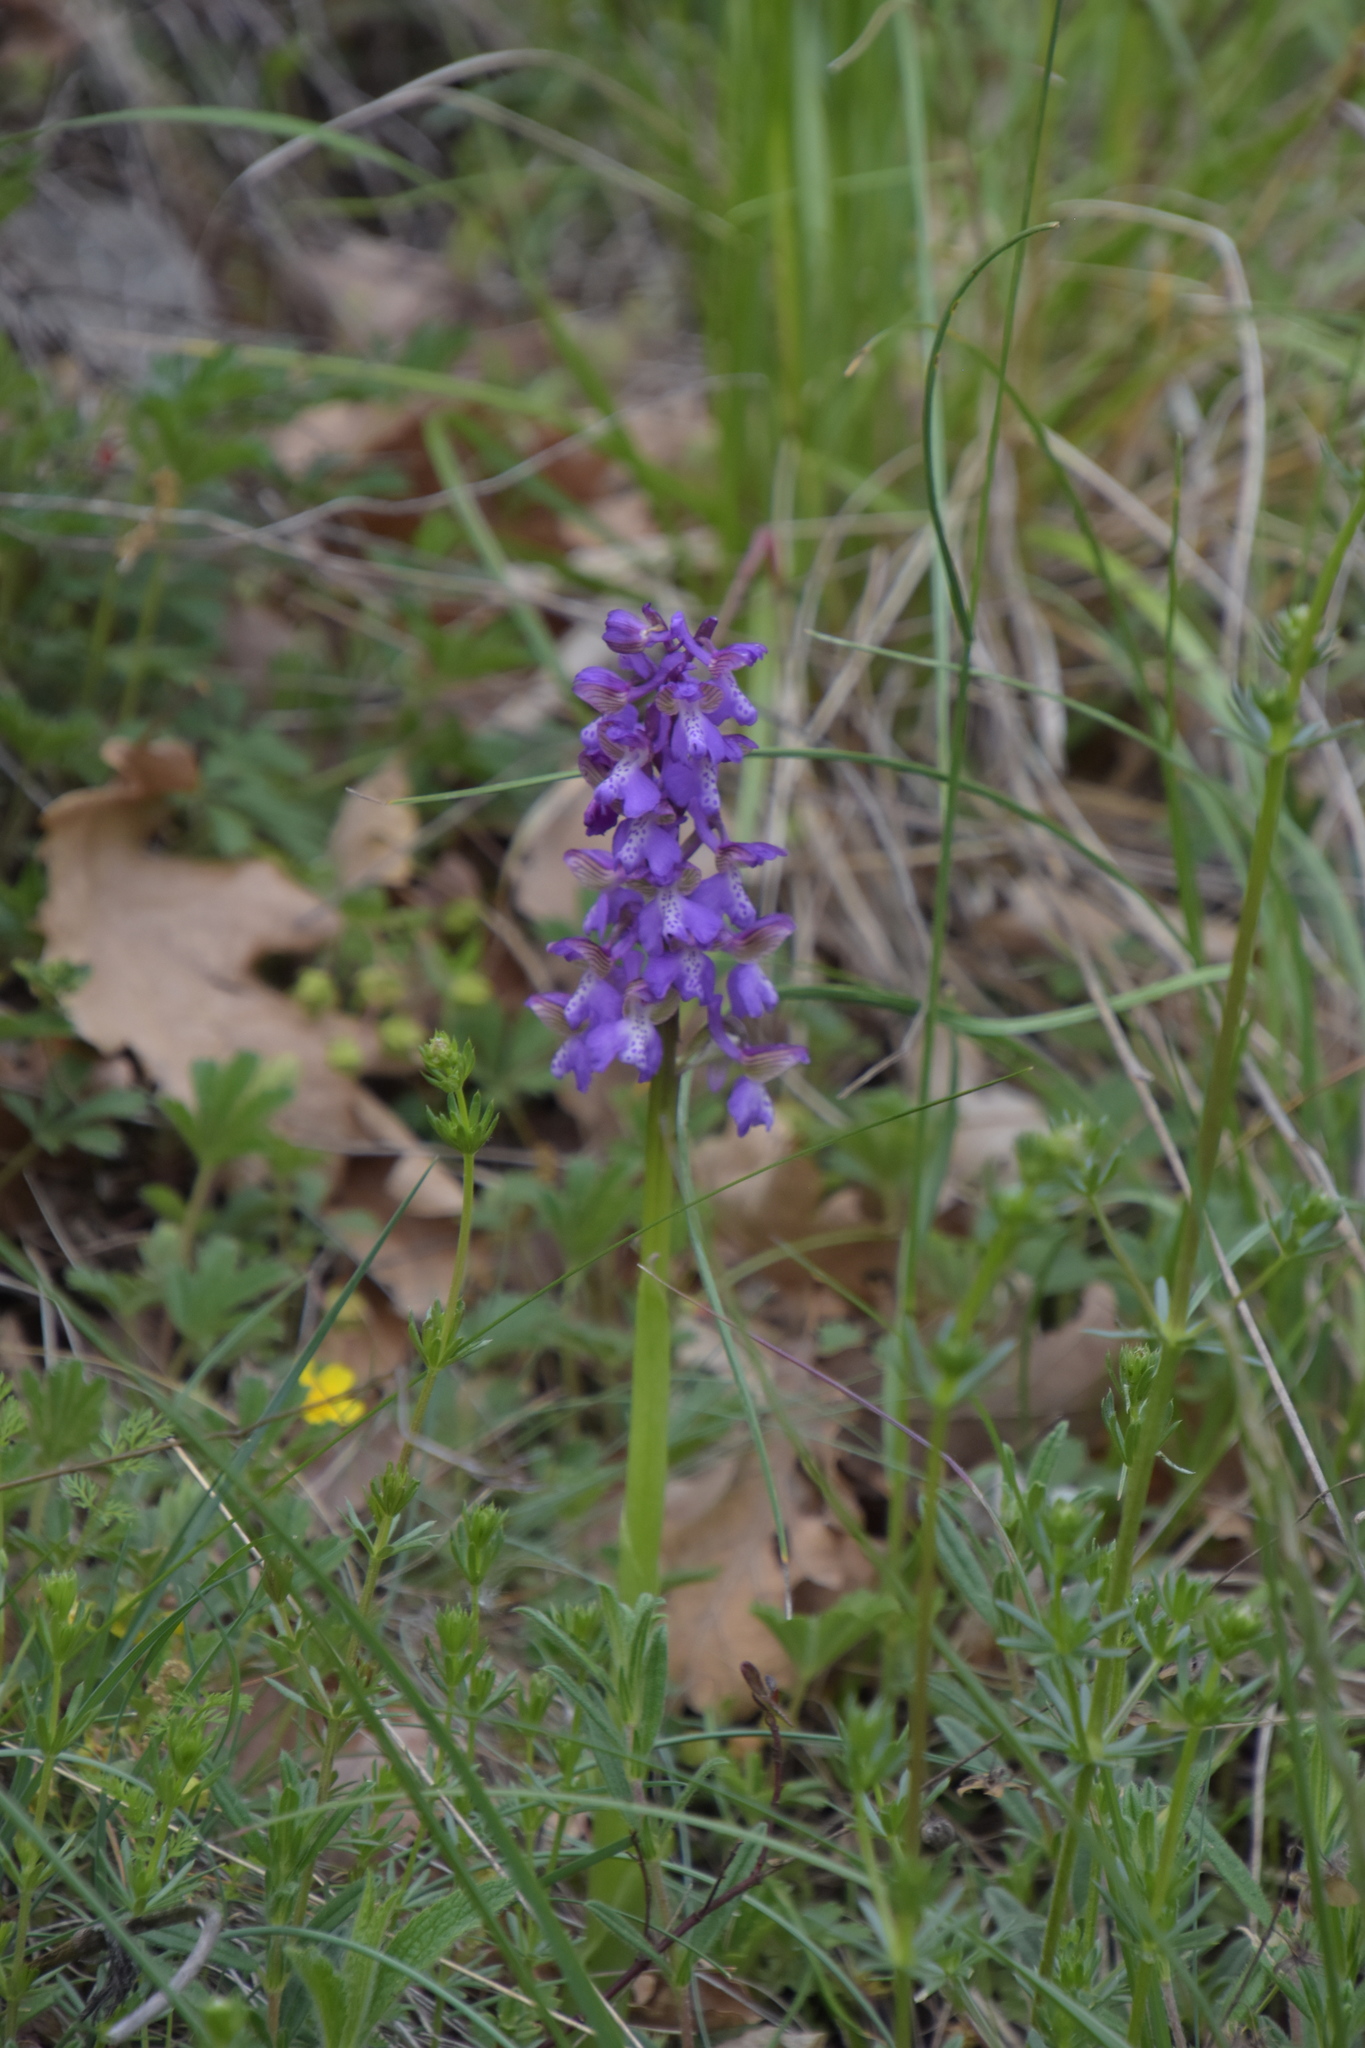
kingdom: Plantae
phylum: Tracheophyta
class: Liliopsida
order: Asparagales
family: Orchidaceae
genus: Anacamptis
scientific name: Anacamptis morio
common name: Green-winged orchid
